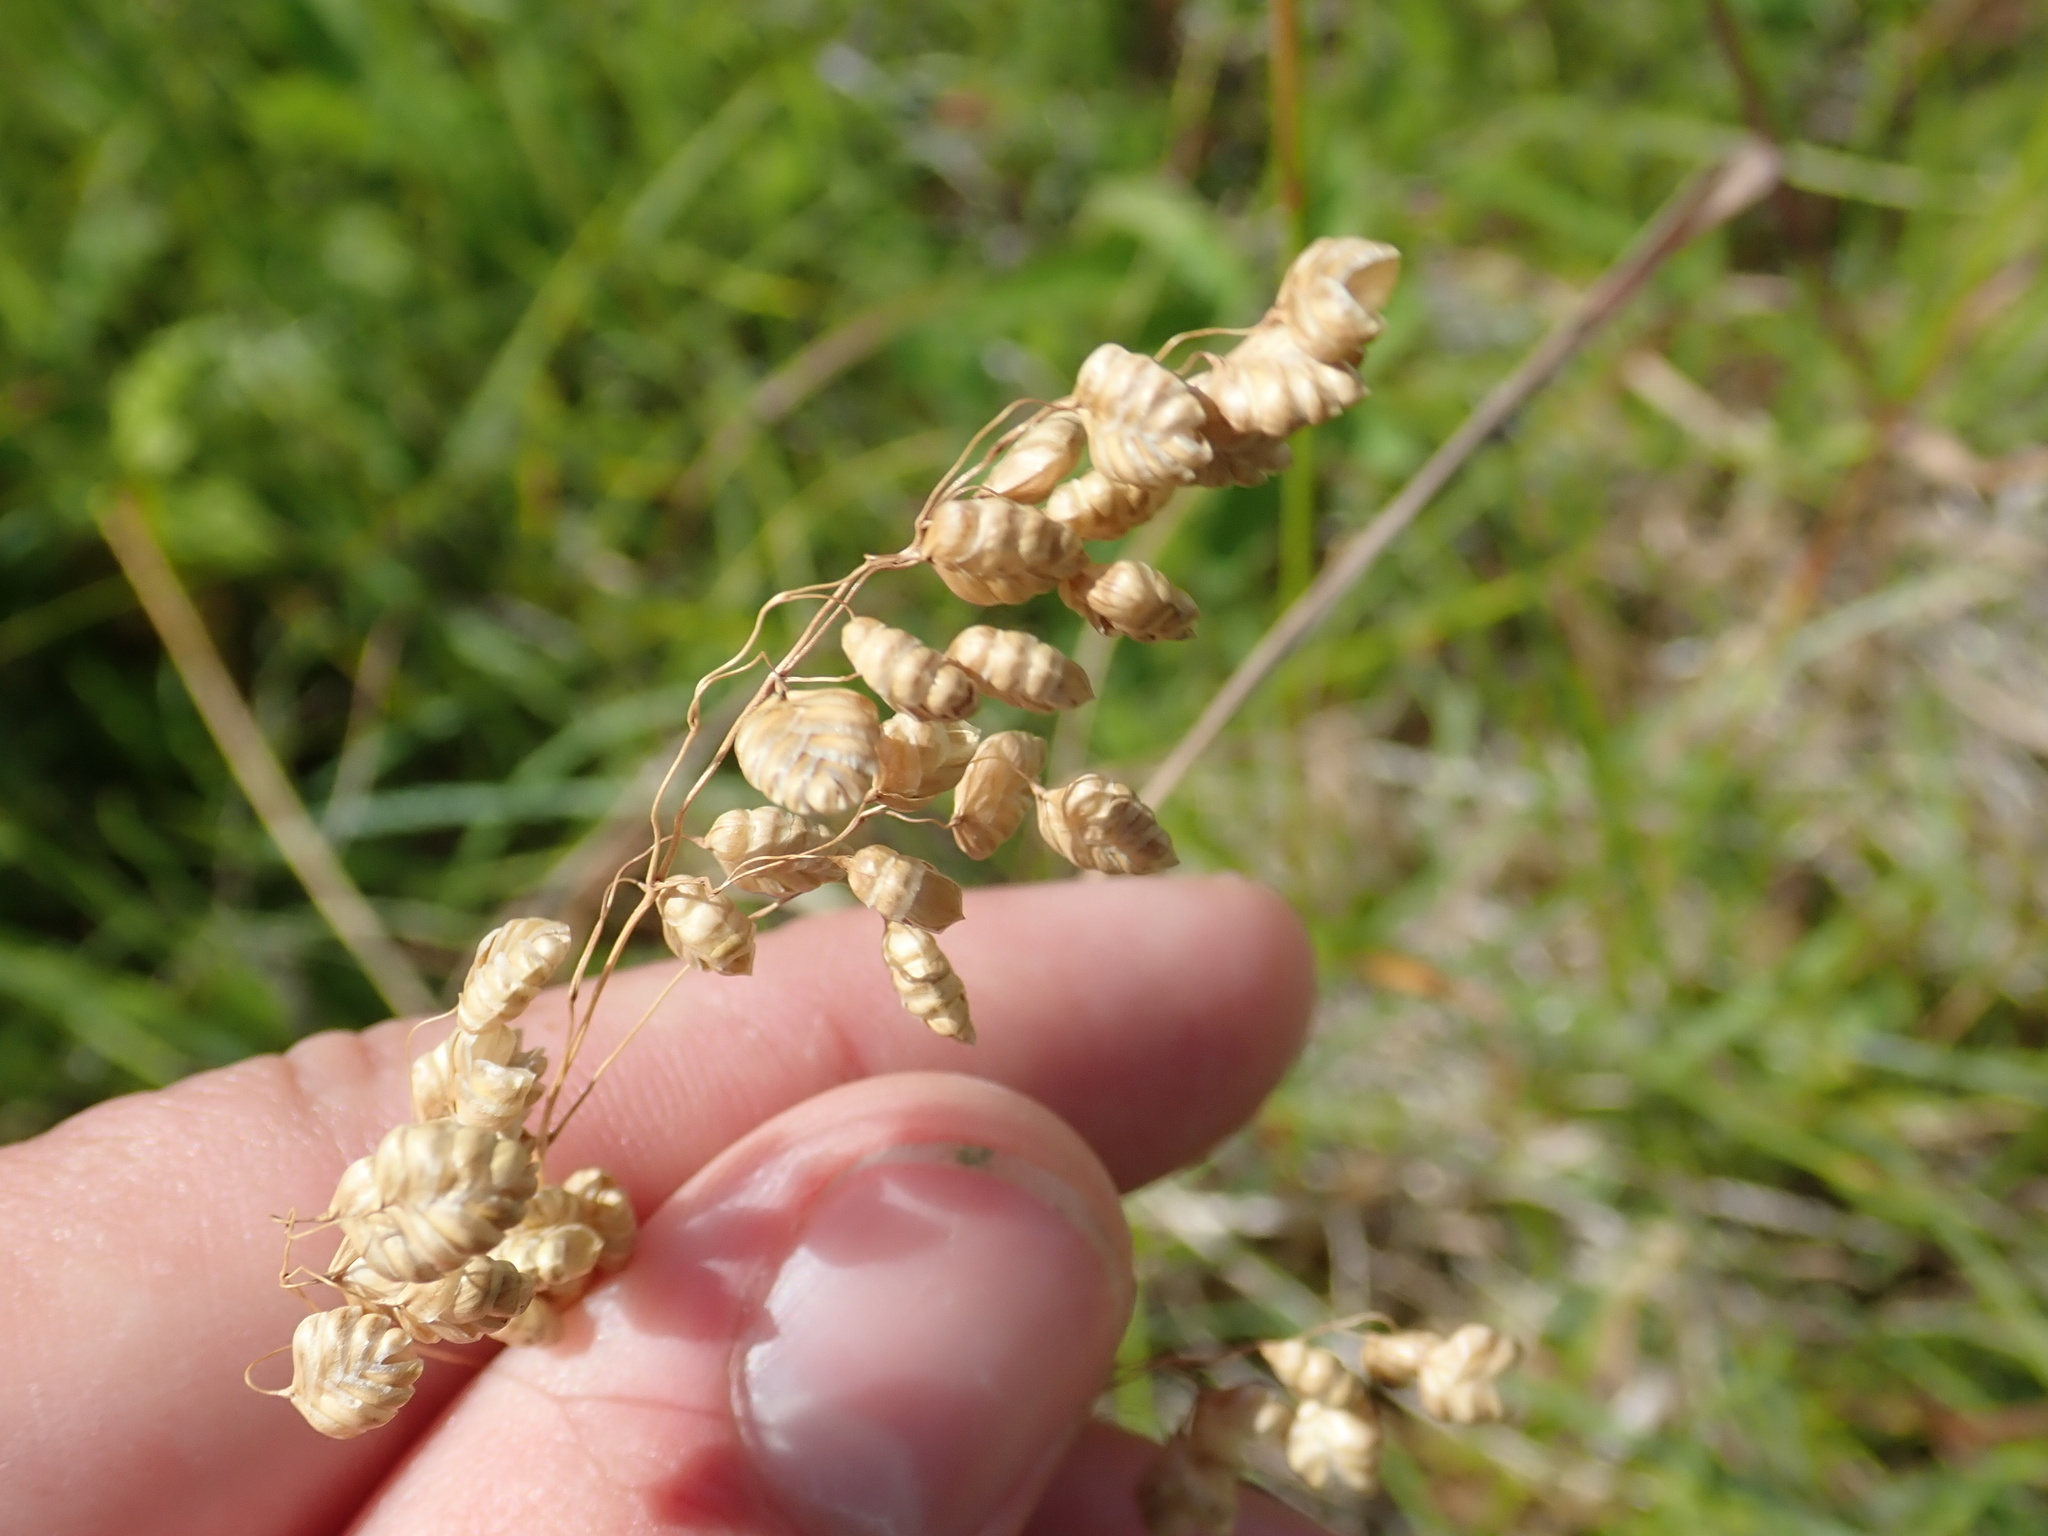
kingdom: Plantae
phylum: Tracheophyta
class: Liliopsida
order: Poales
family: Poaceae
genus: Briza
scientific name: Briza media
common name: Quaking grass
